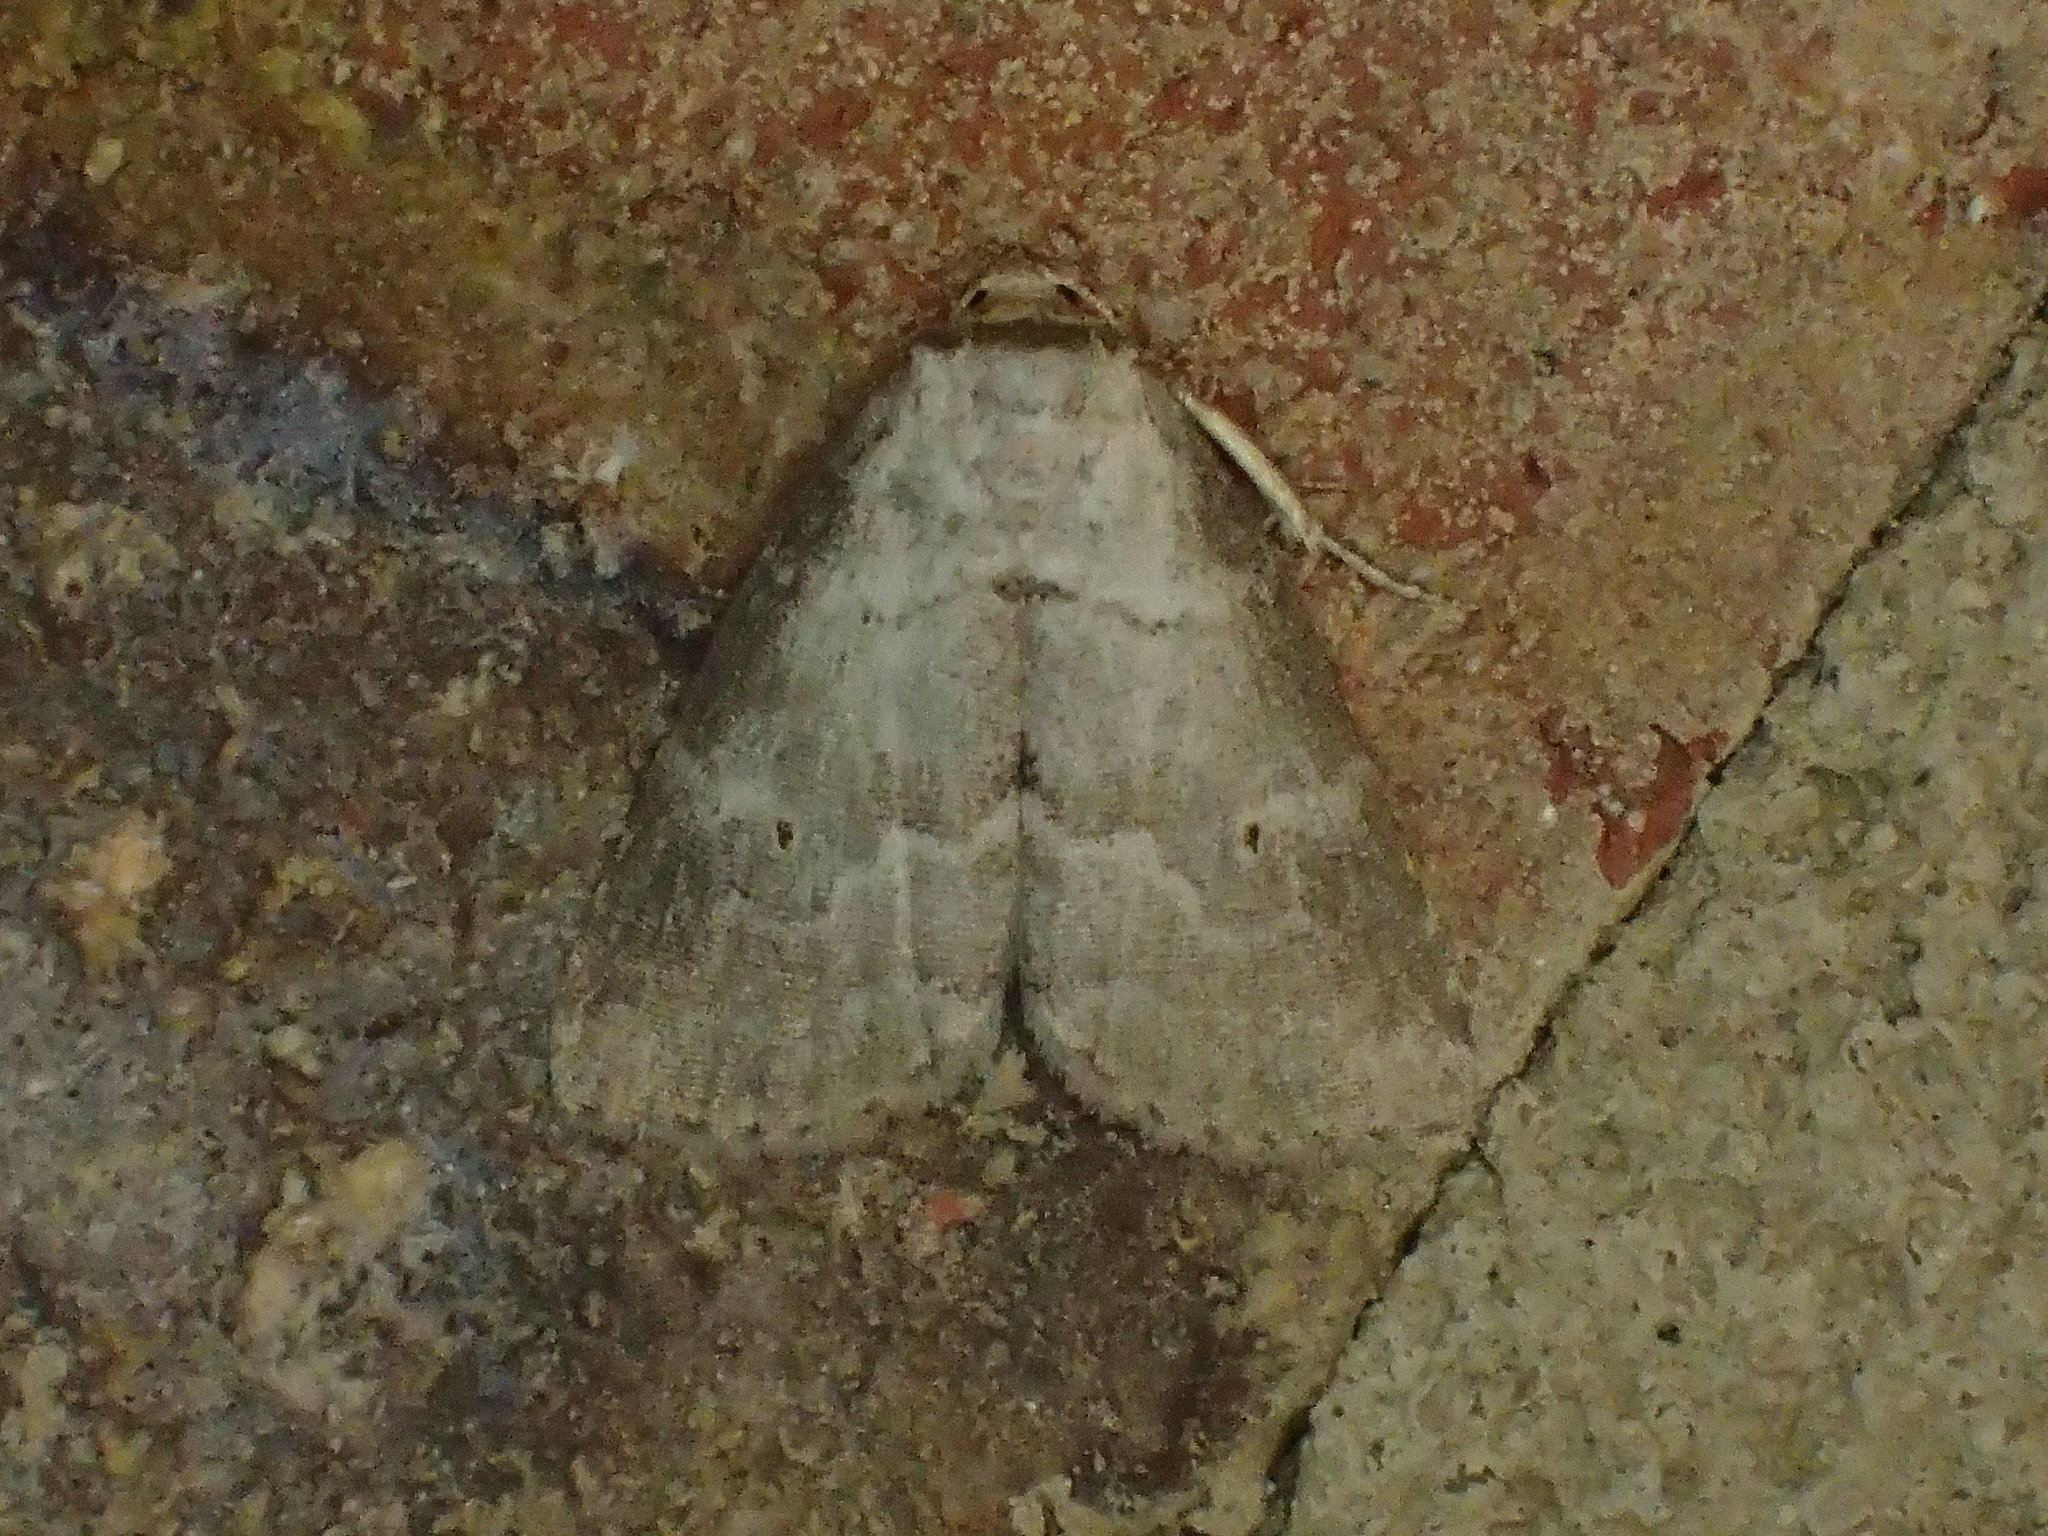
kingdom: Animalia
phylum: Arthropoda
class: Insecta
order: Lepidoptera
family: Erebidae
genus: Hyperstrotia
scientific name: Hyperstrotia pervertens
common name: Dotted graylet
